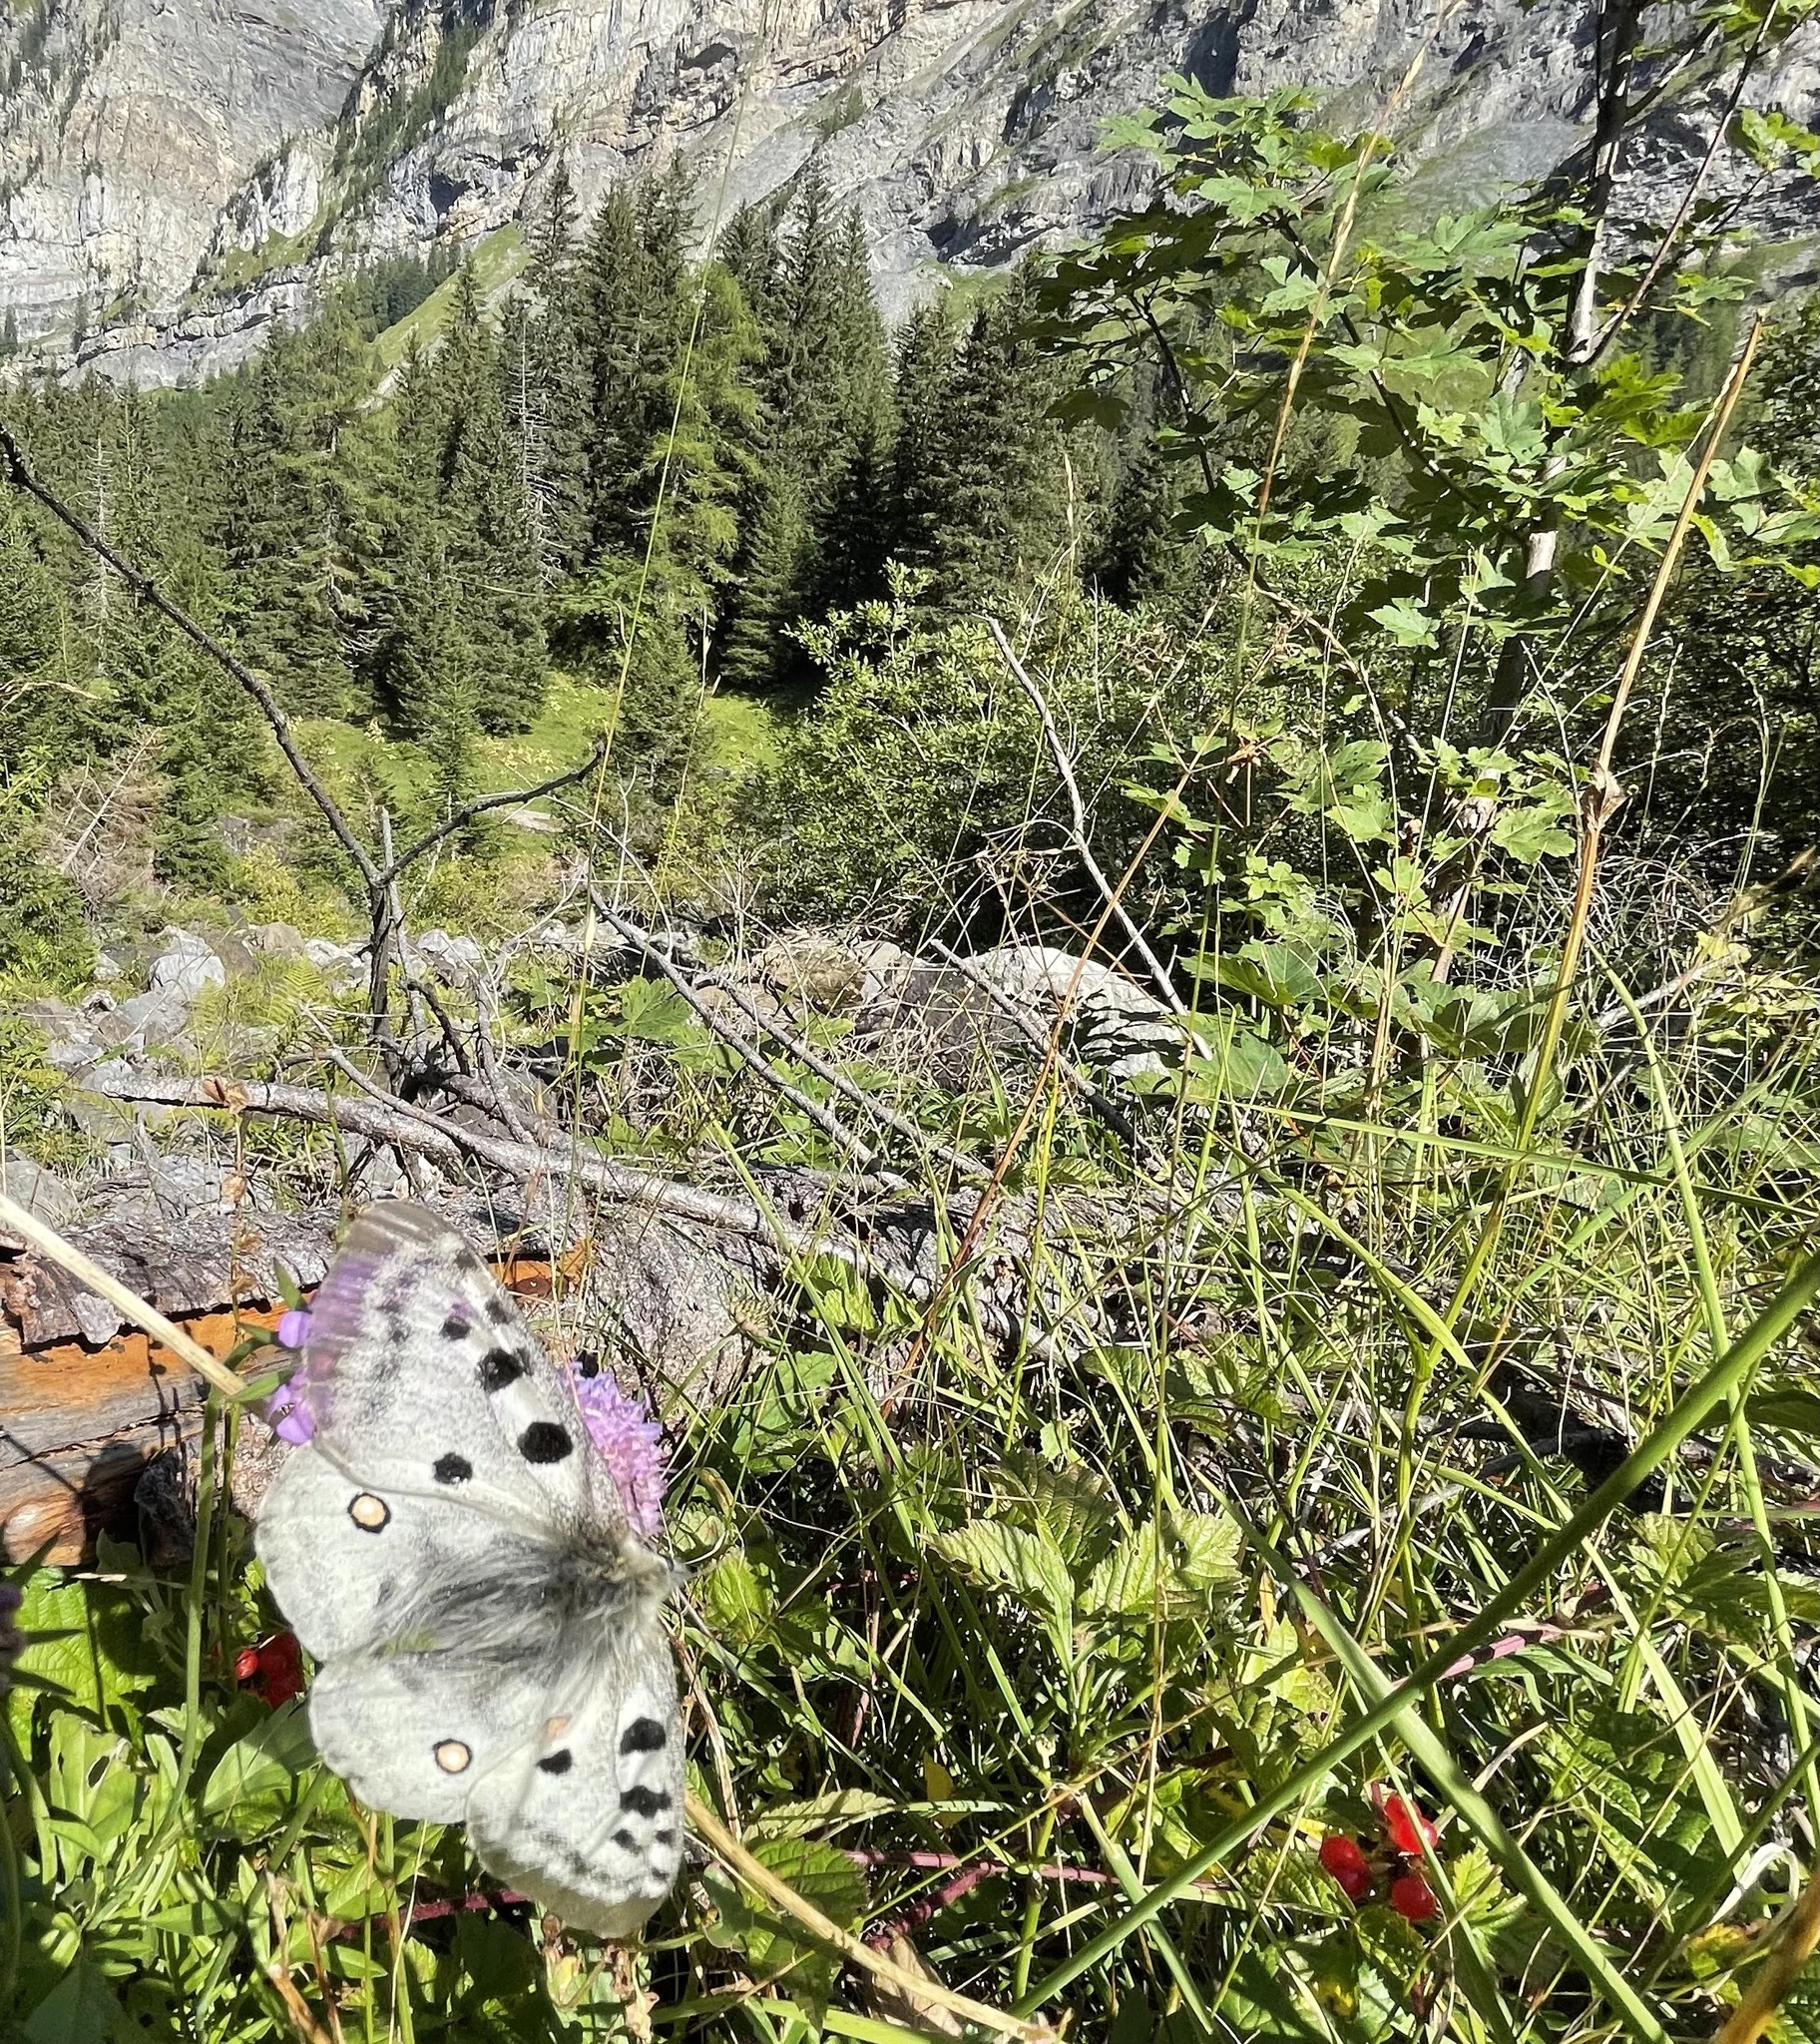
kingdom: Animalia
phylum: Arthropoda
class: Insecta
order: Lepidoptera
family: Papilionidae
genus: Parnassius
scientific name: Parnassius apollo
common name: Apollo
